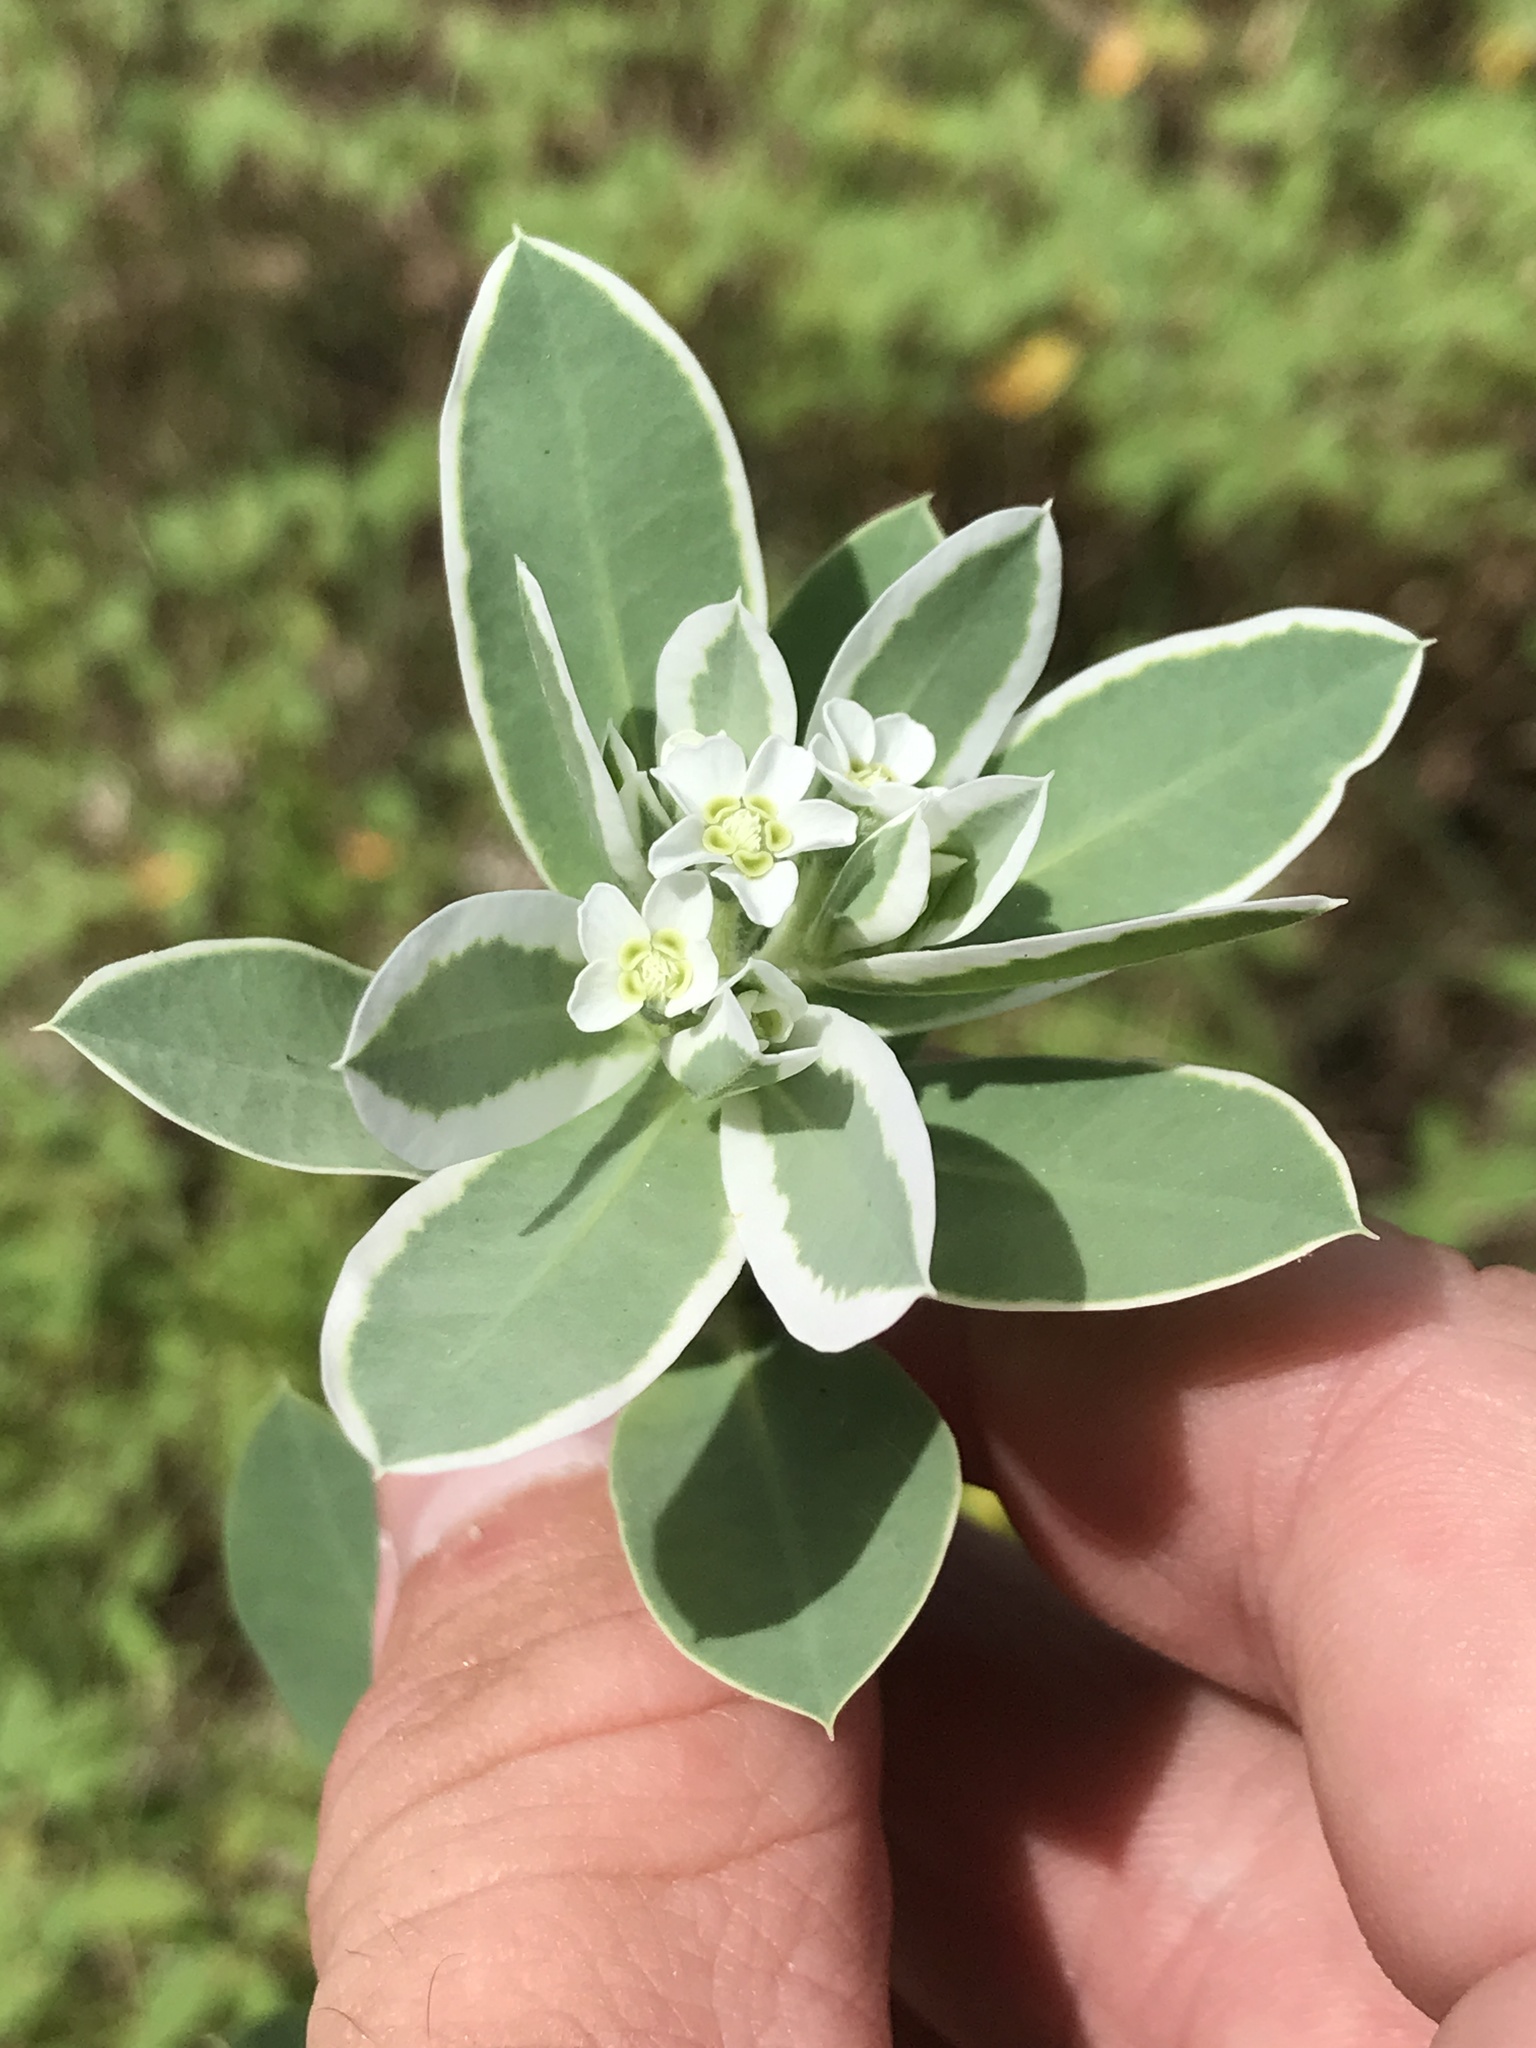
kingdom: Plantae
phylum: Tracheophyta
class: Magnoliopsida
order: Malpighiales
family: Euphorbiaceae
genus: Euphorbia
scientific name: Euphorbia marginata
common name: Ghostweed
